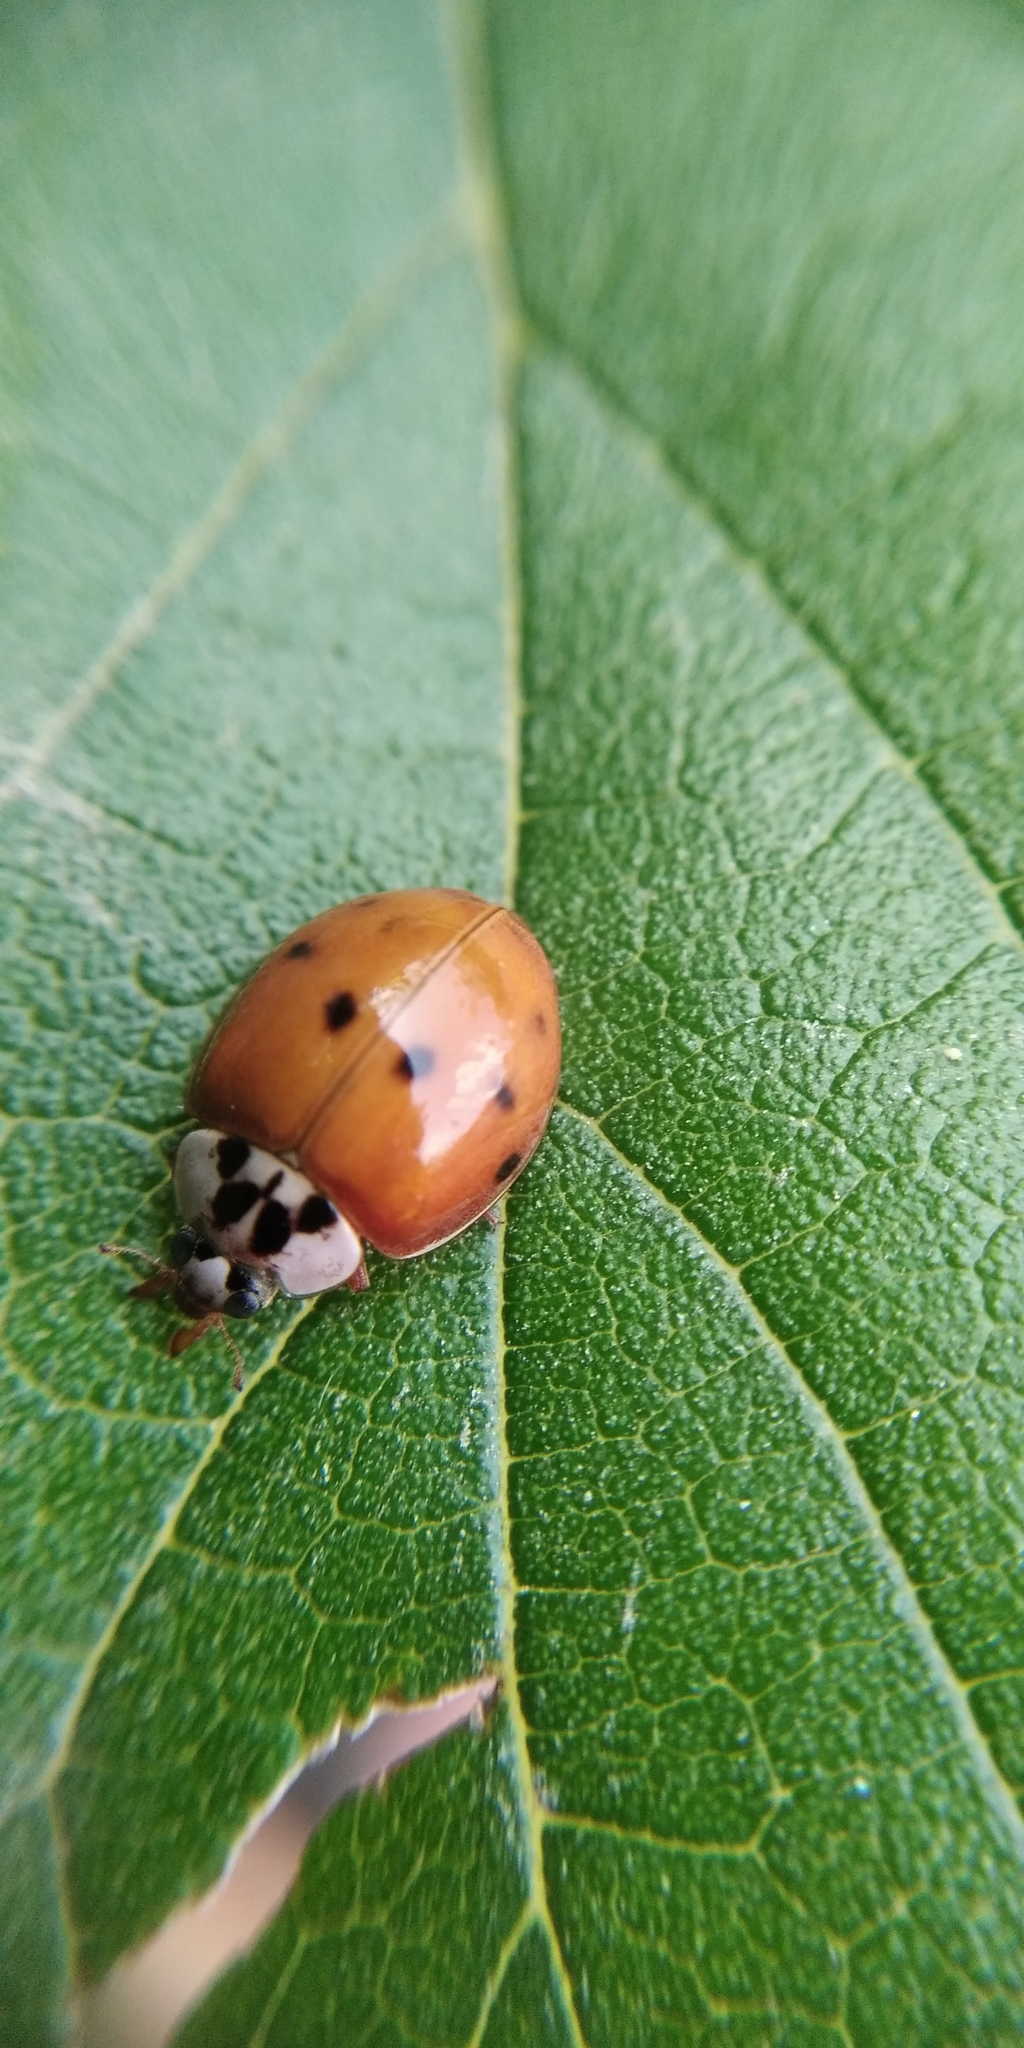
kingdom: Animalia
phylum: Arthropoda
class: Insecta
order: Coleoptera
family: Coccinellidae
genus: Harmonia
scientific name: Harmonia axyridis
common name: Harlequin ladybird
